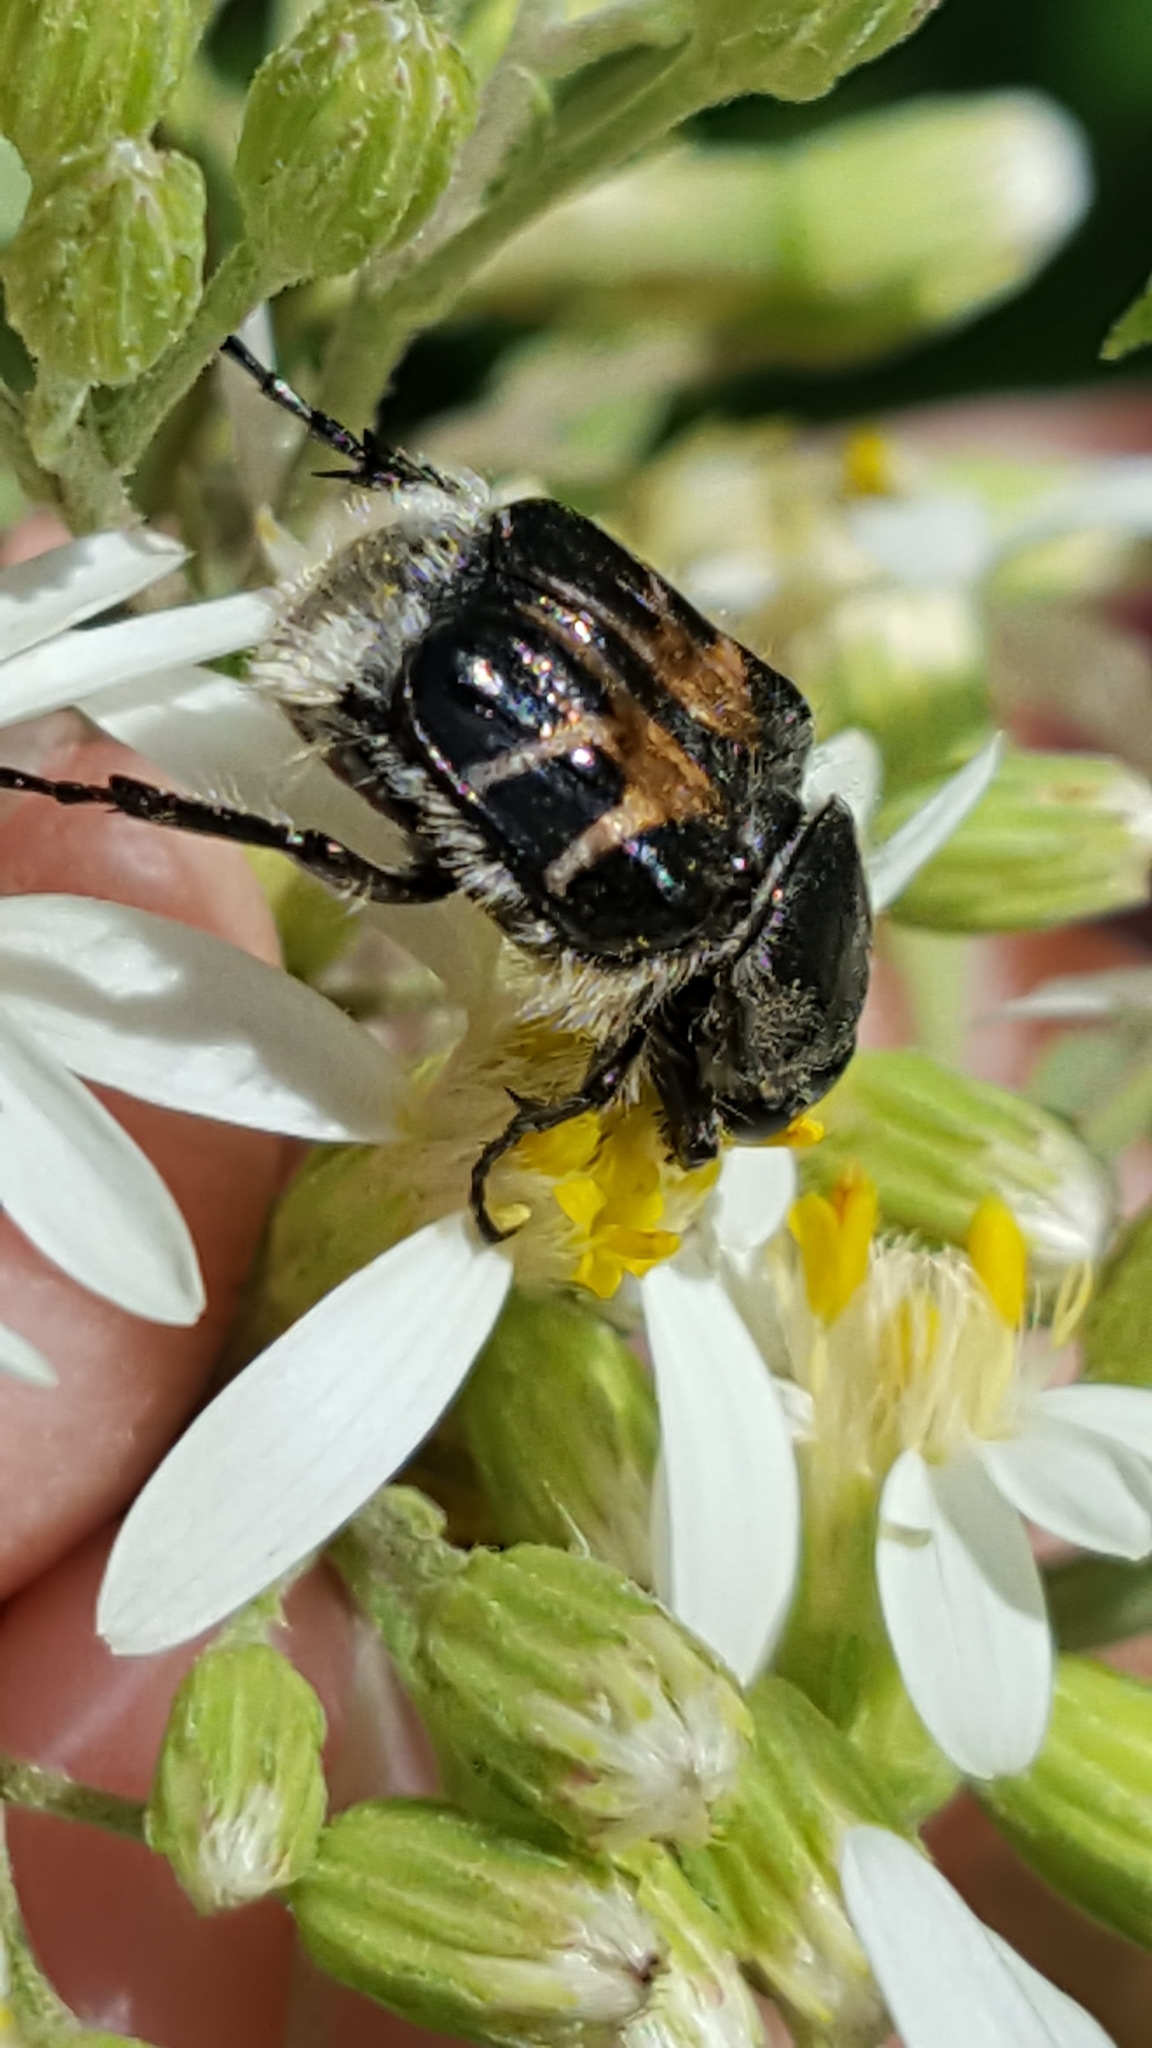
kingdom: Animalia
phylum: Arthropoda
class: Insecta
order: Coleoptera
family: Scarabaeidae
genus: Trichiotinus
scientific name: Trichiotinus assimilis
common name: Bee-mimic beetle
